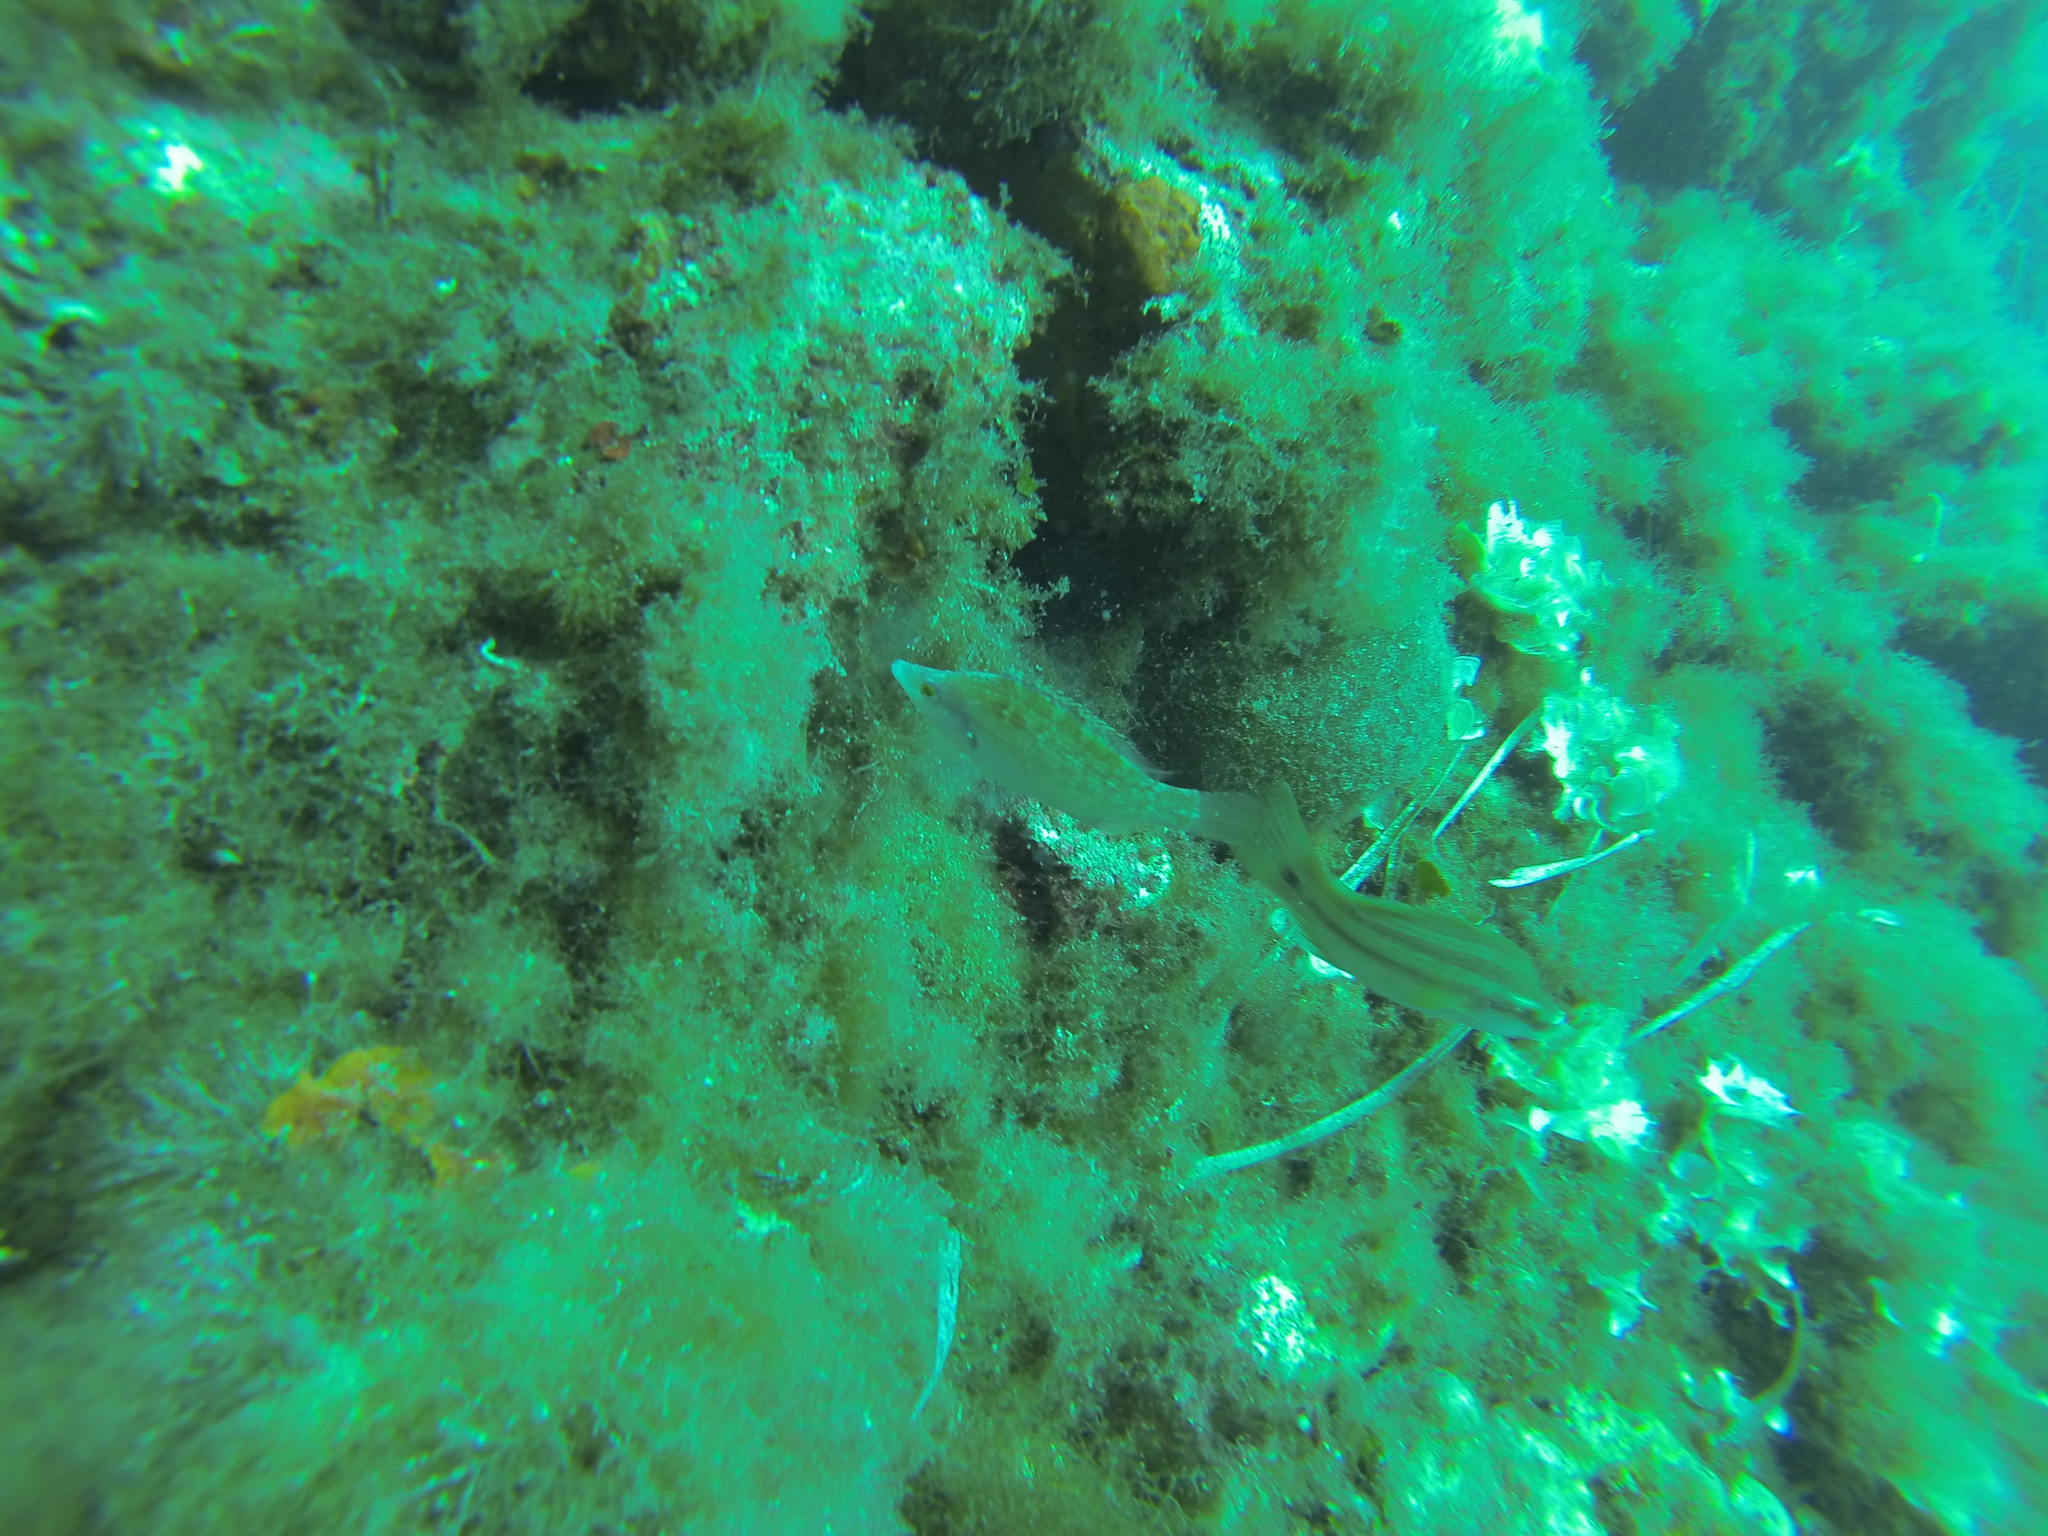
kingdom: Animalia
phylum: Chordata
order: Perciformes
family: Labridae
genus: Symphodus
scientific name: Symphodus rostratus
